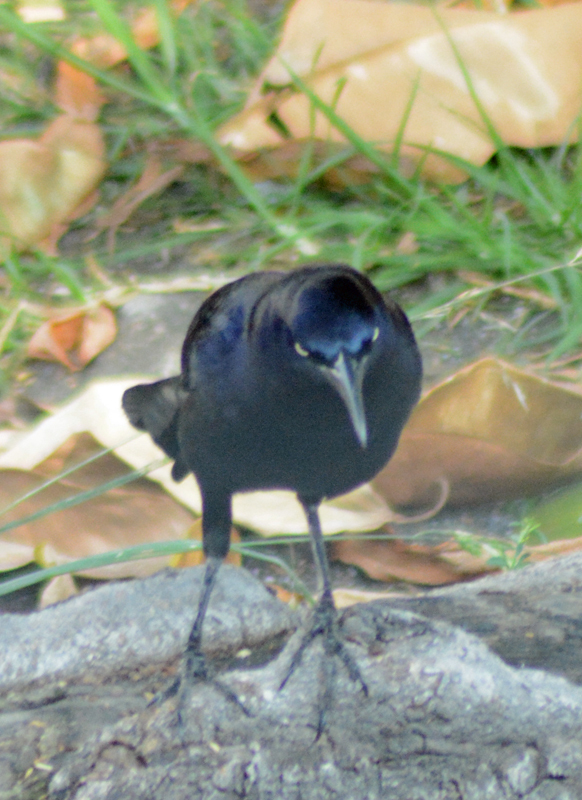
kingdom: Animalia
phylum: Chordata
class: Aves
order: Passeriformes
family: Icteridae
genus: Quiscalus
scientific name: Quiscalus mexicanus
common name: Great-tailed grackle
